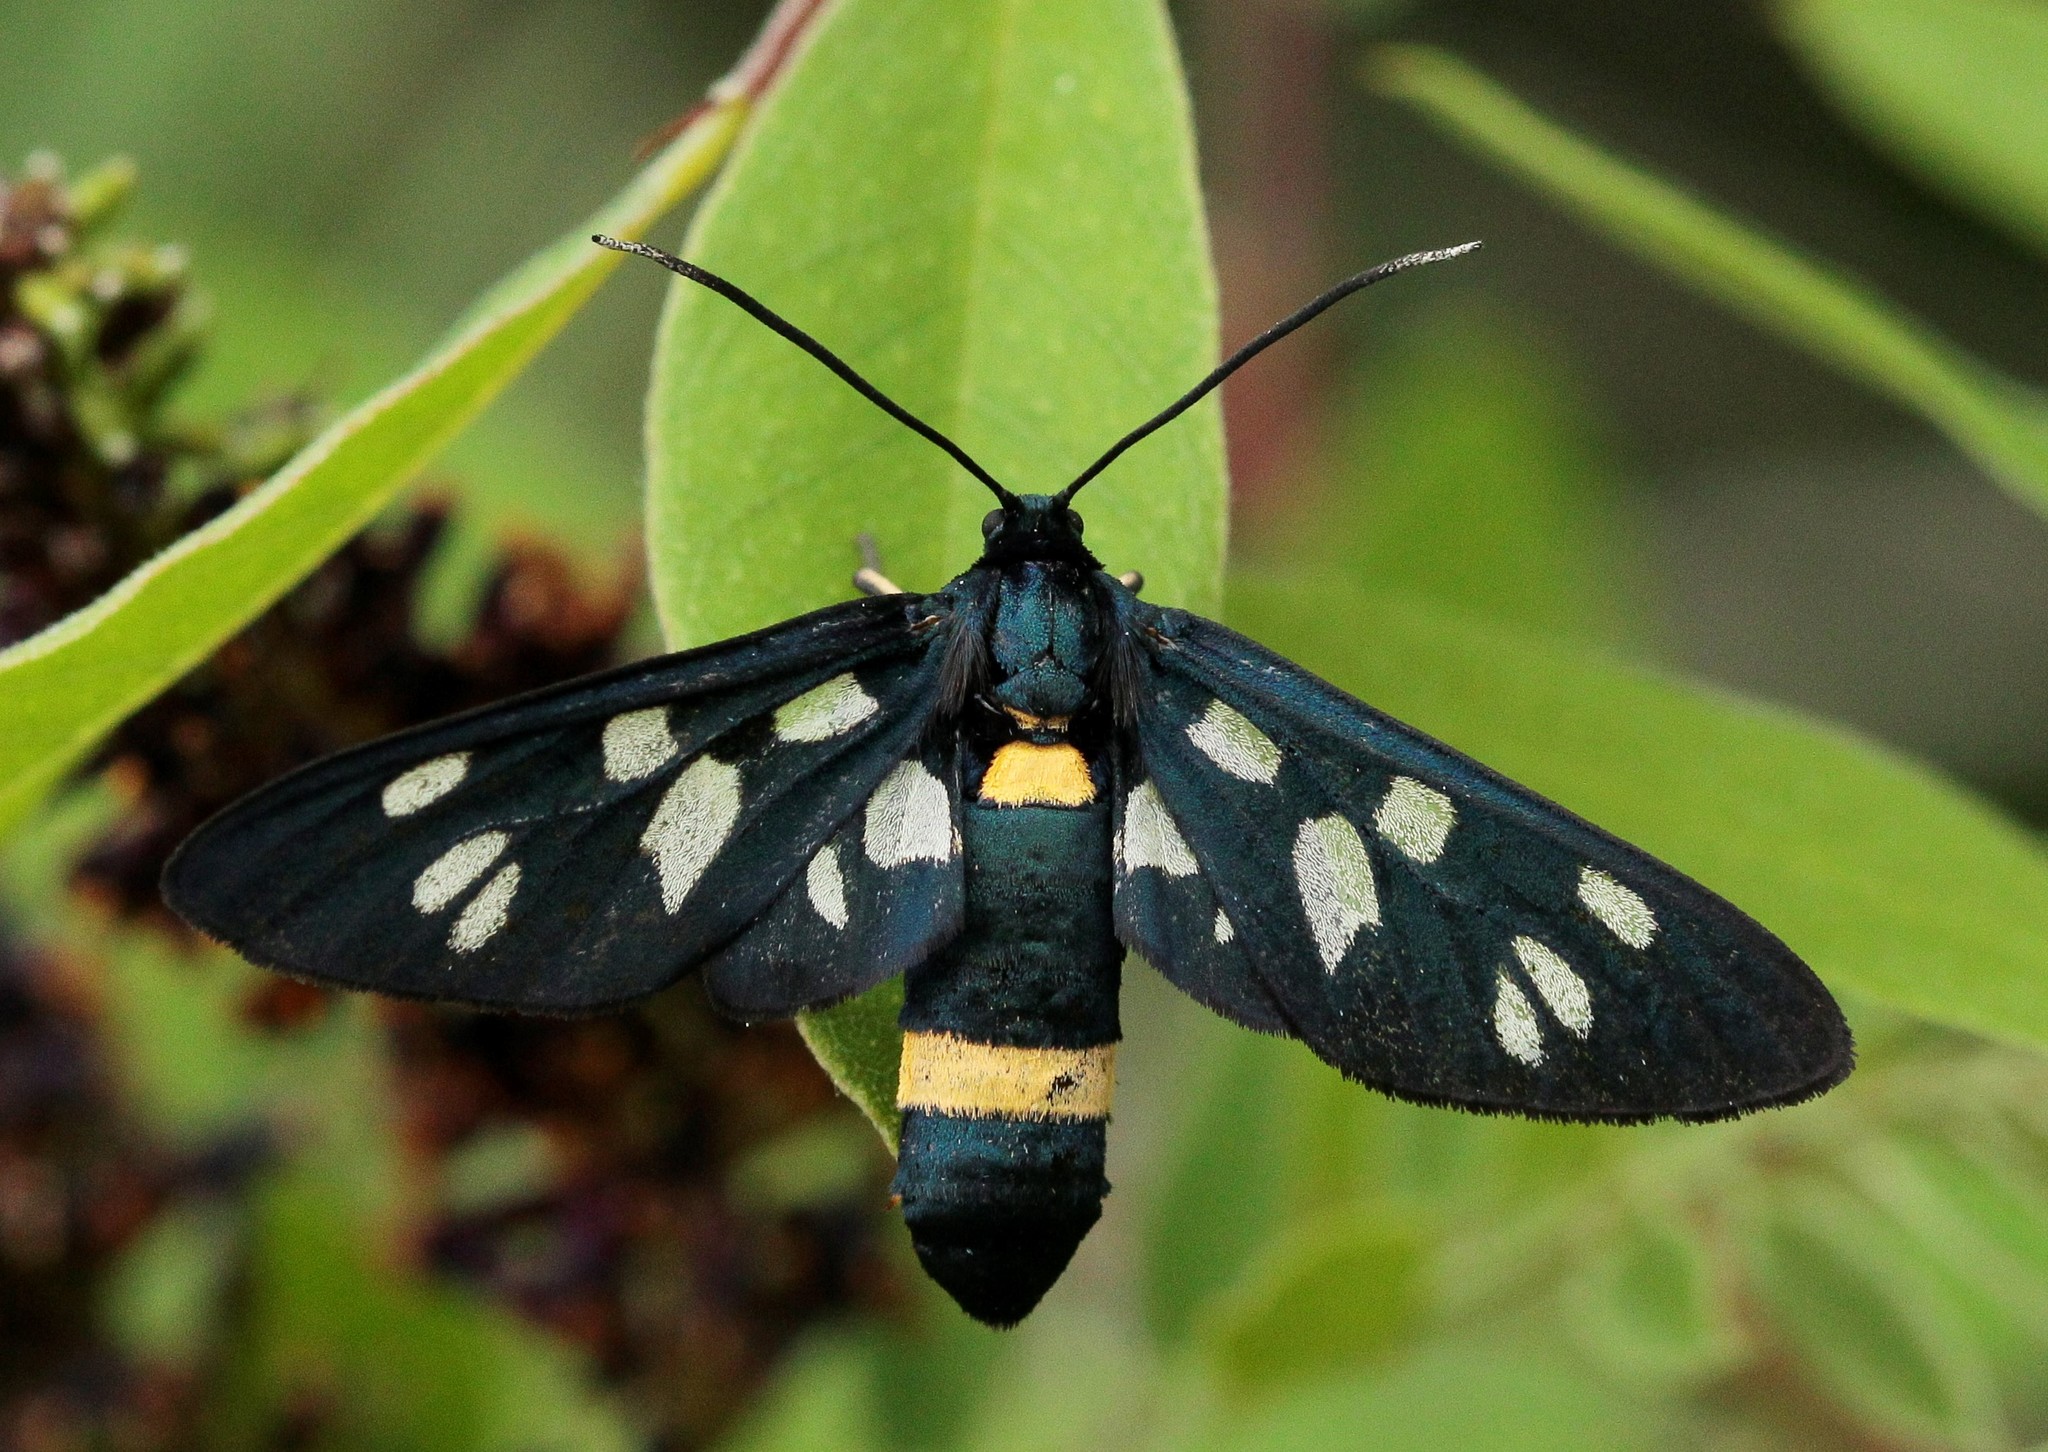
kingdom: Animalia
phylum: Arthropoda
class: Insecta
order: Lepidoptera
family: Erebidae
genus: Amata
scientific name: Amata nigricornis
